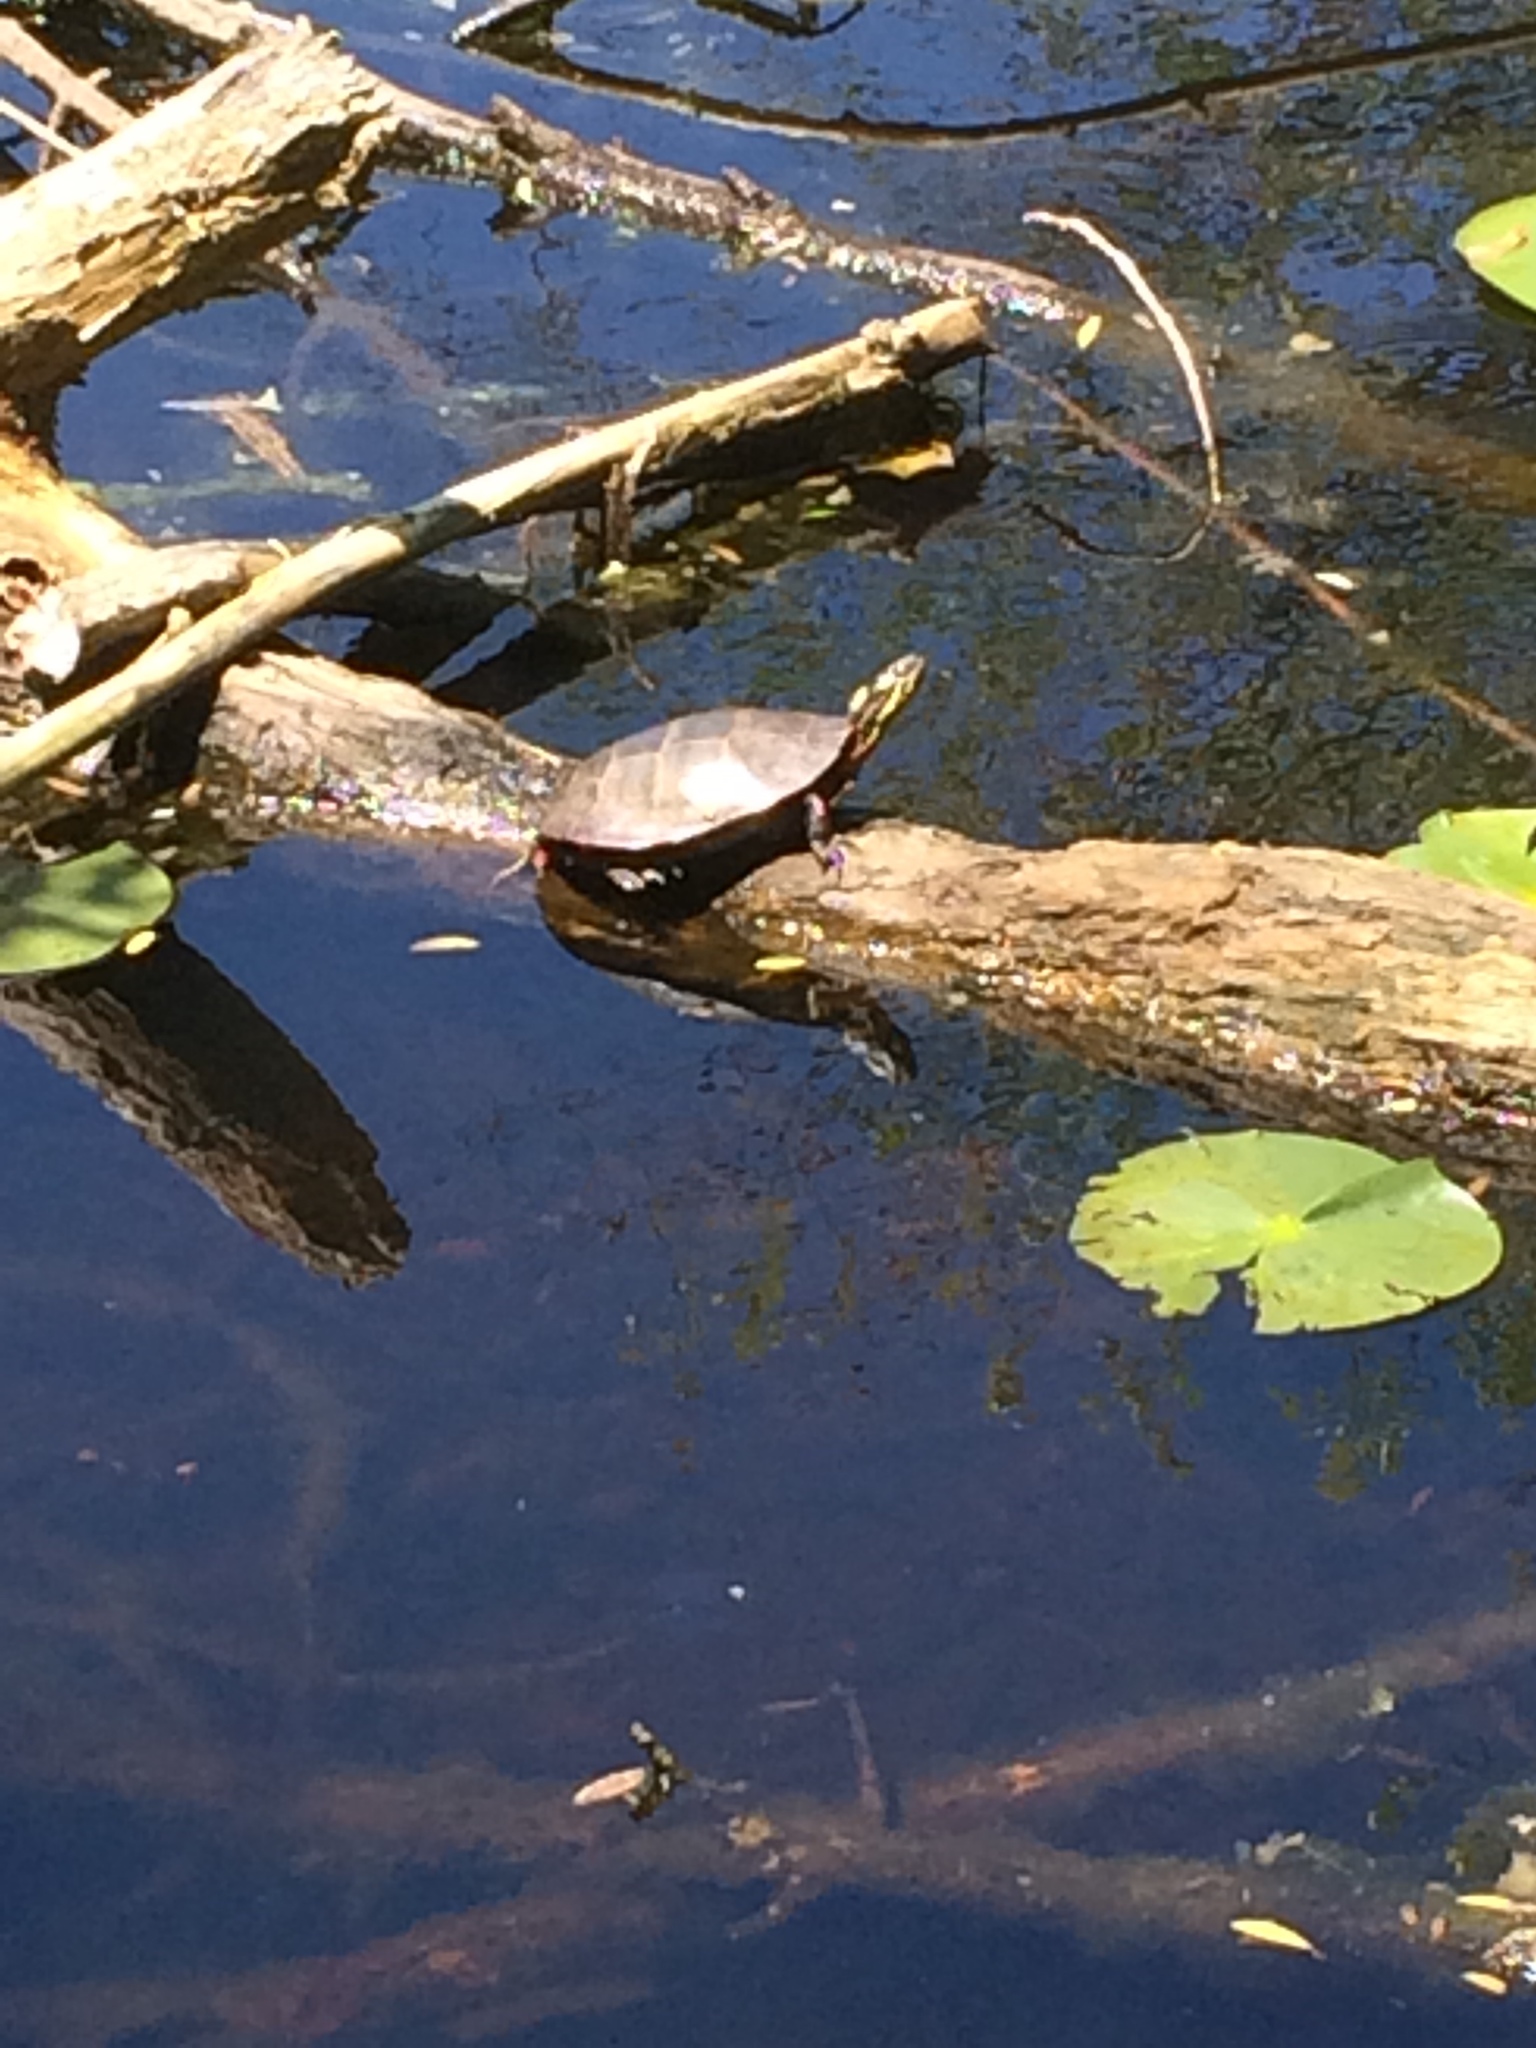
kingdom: Animalia
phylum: Chordata
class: Testudines
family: Emydidae
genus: Chrysemys
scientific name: Chrysemys picta
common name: Painted turtle
